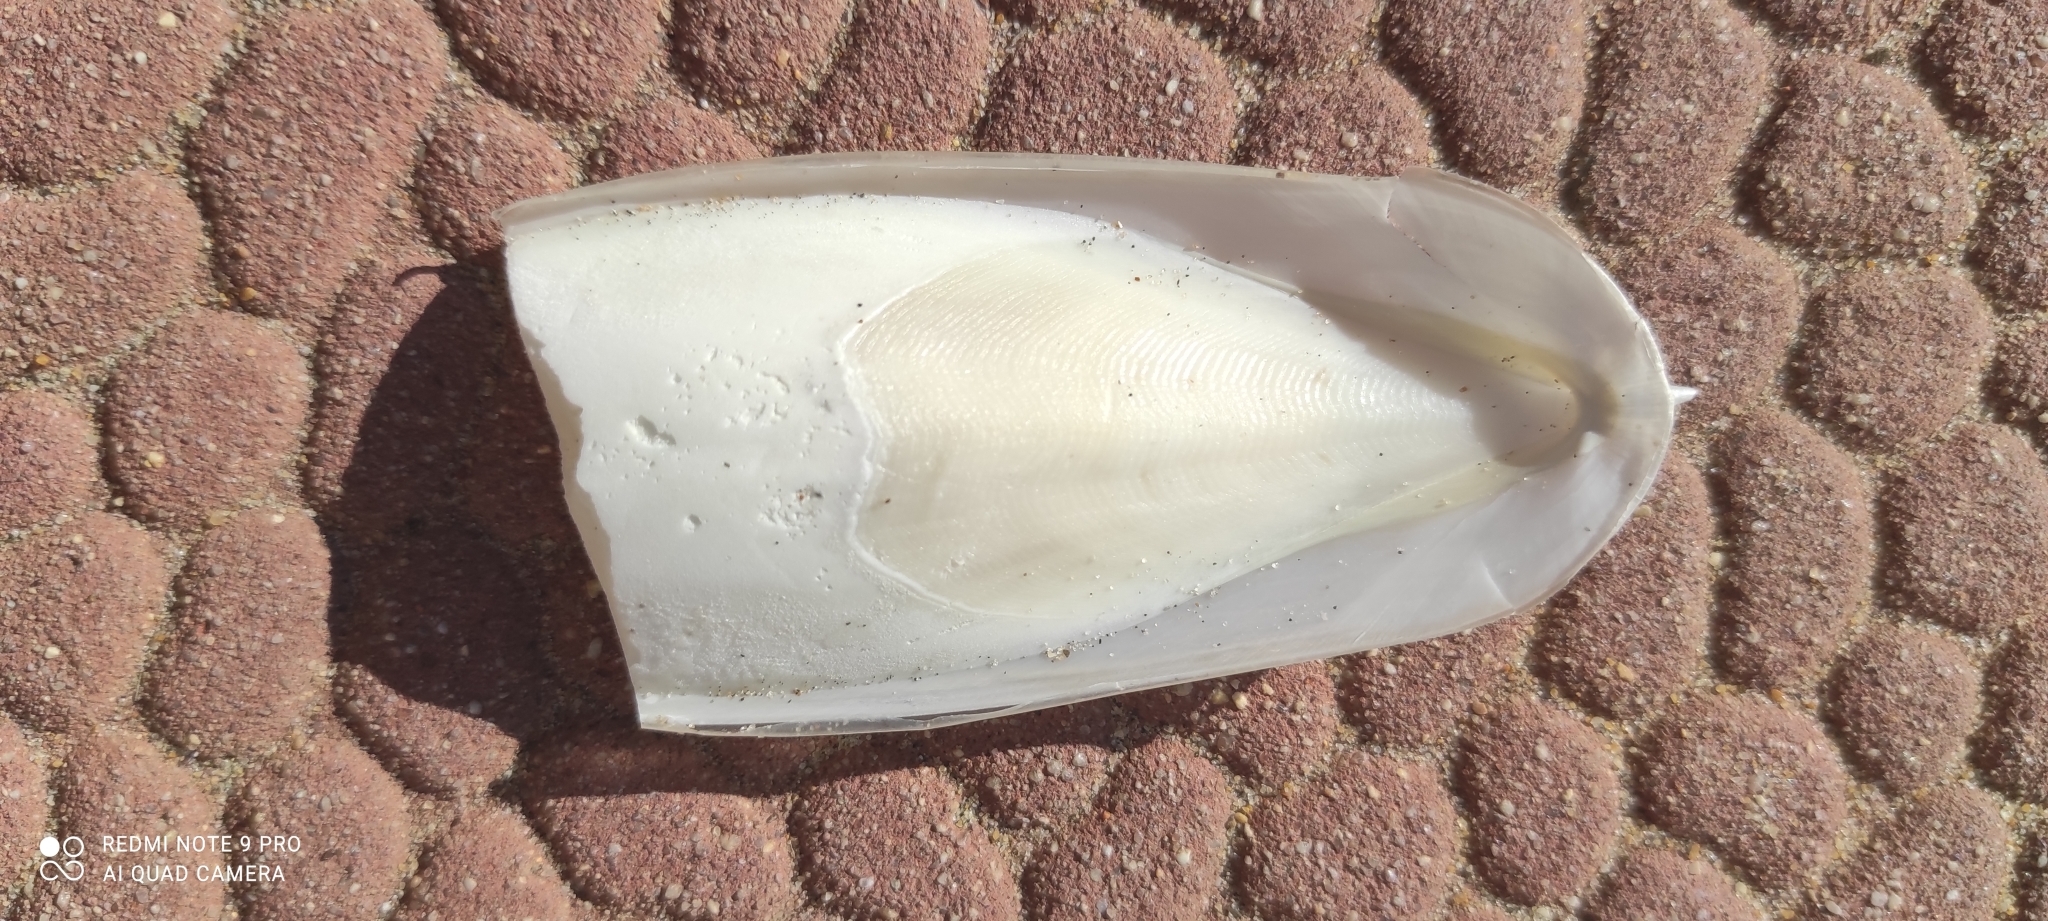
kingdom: Animalia
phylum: Mollusca
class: Cephalopoda
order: Sepiida
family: Sepiidae
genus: Sepia
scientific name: Sepia officinalis
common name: Common cuttlefish
